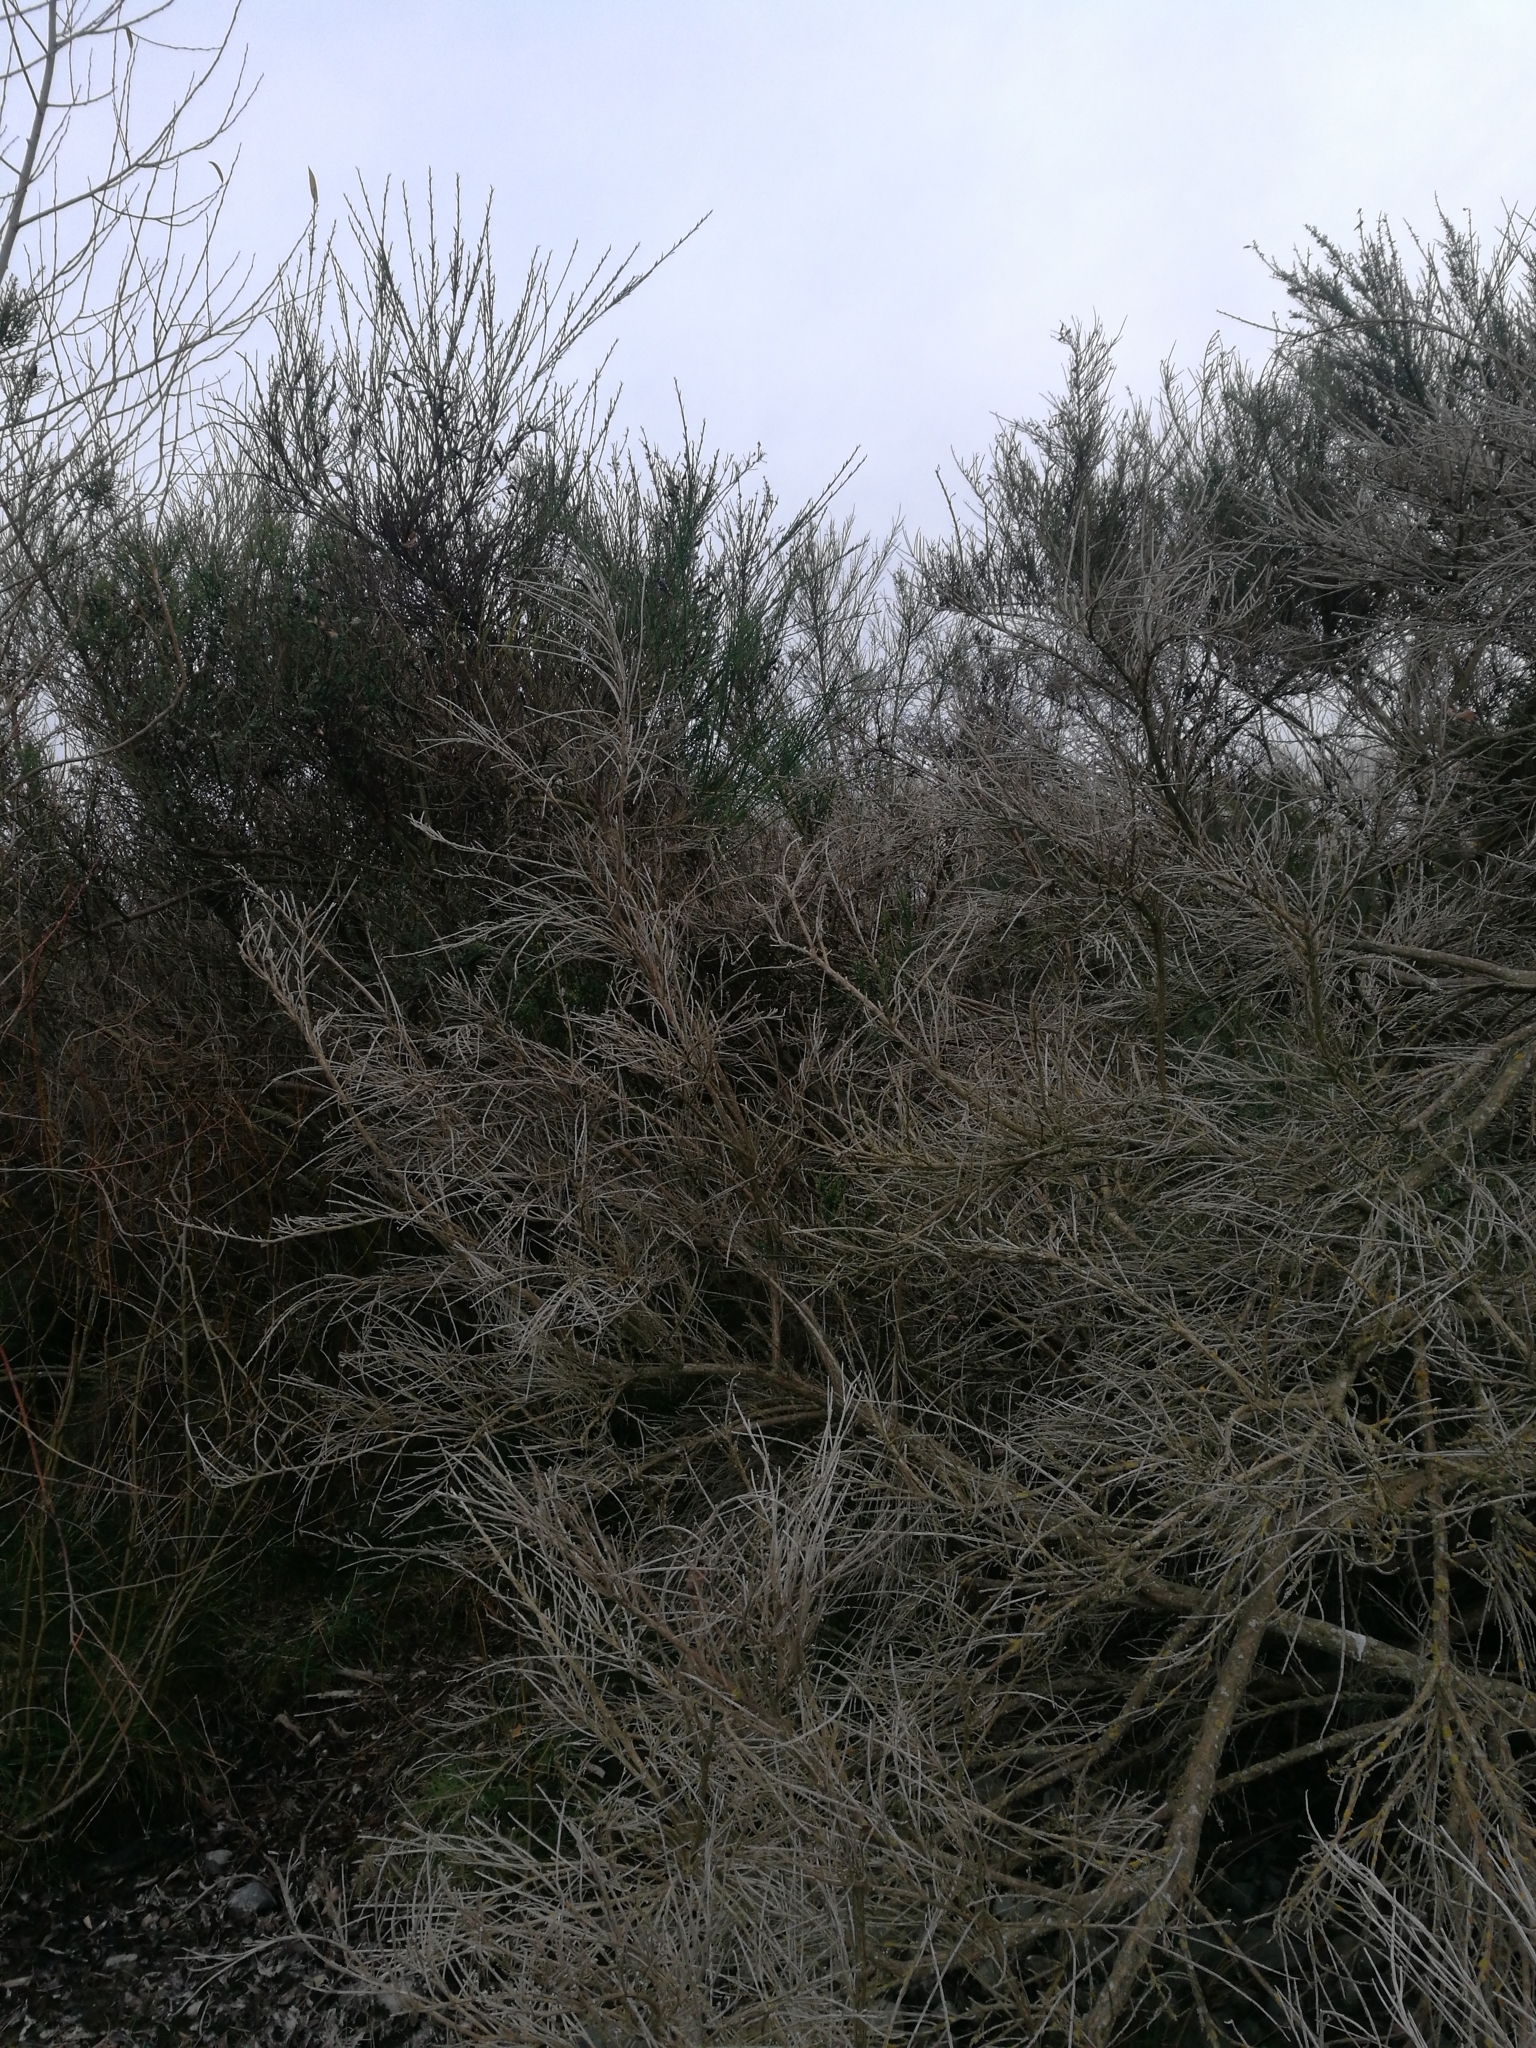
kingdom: Plantae
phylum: Tracheophyta
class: Magnoliopsida
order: Fabales
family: Fabaceae
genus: Cytisus
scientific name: Cytisus scoparius
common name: Scotch broom
